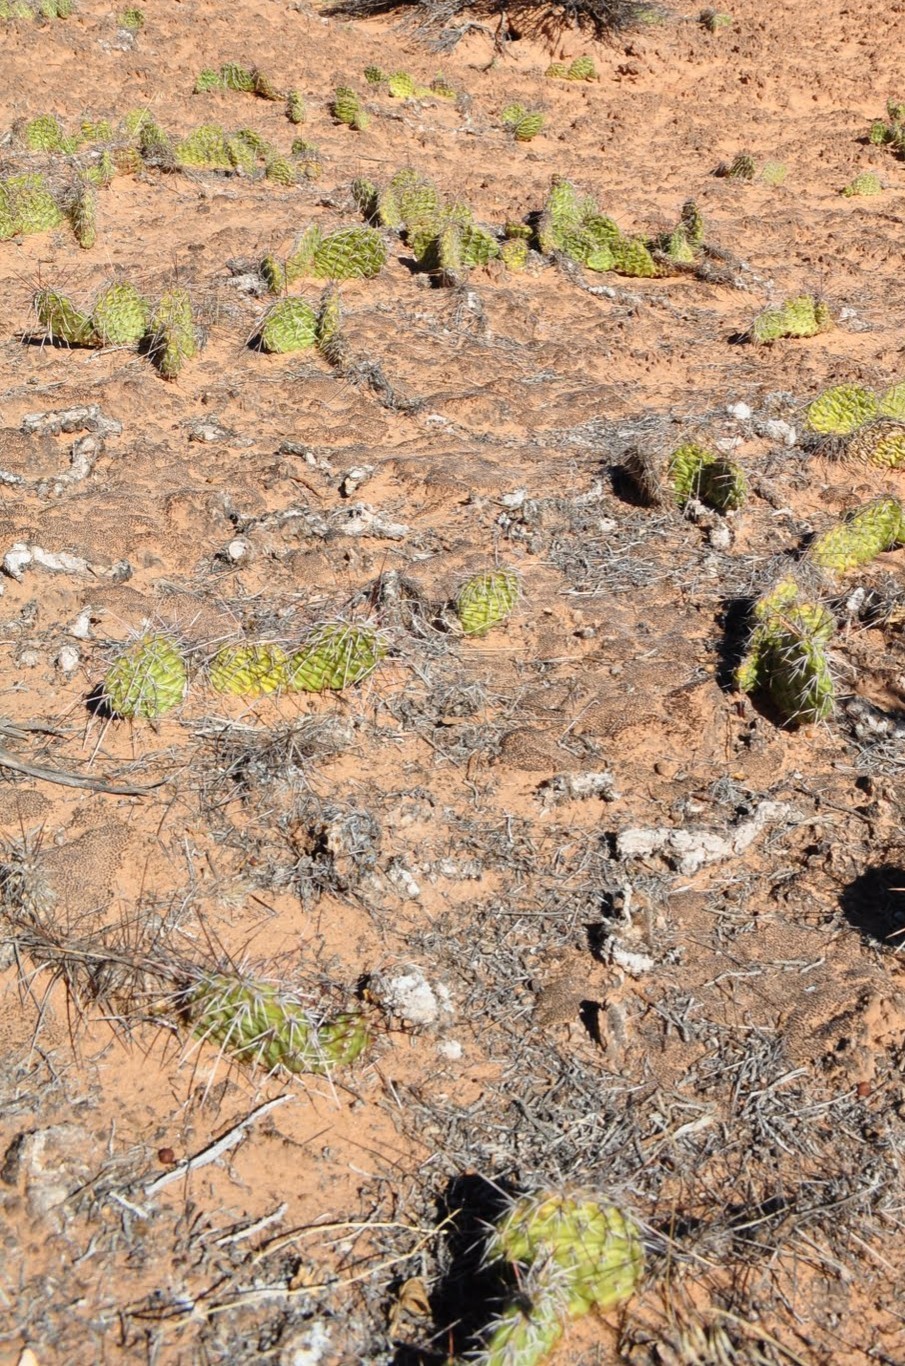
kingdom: Plantae
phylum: Tracheophyta
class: Magnoliopsida
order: Caryophyllales
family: Cactaceae
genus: Opuntia
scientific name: Opuntia aurea
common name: Golden prickly-pear
